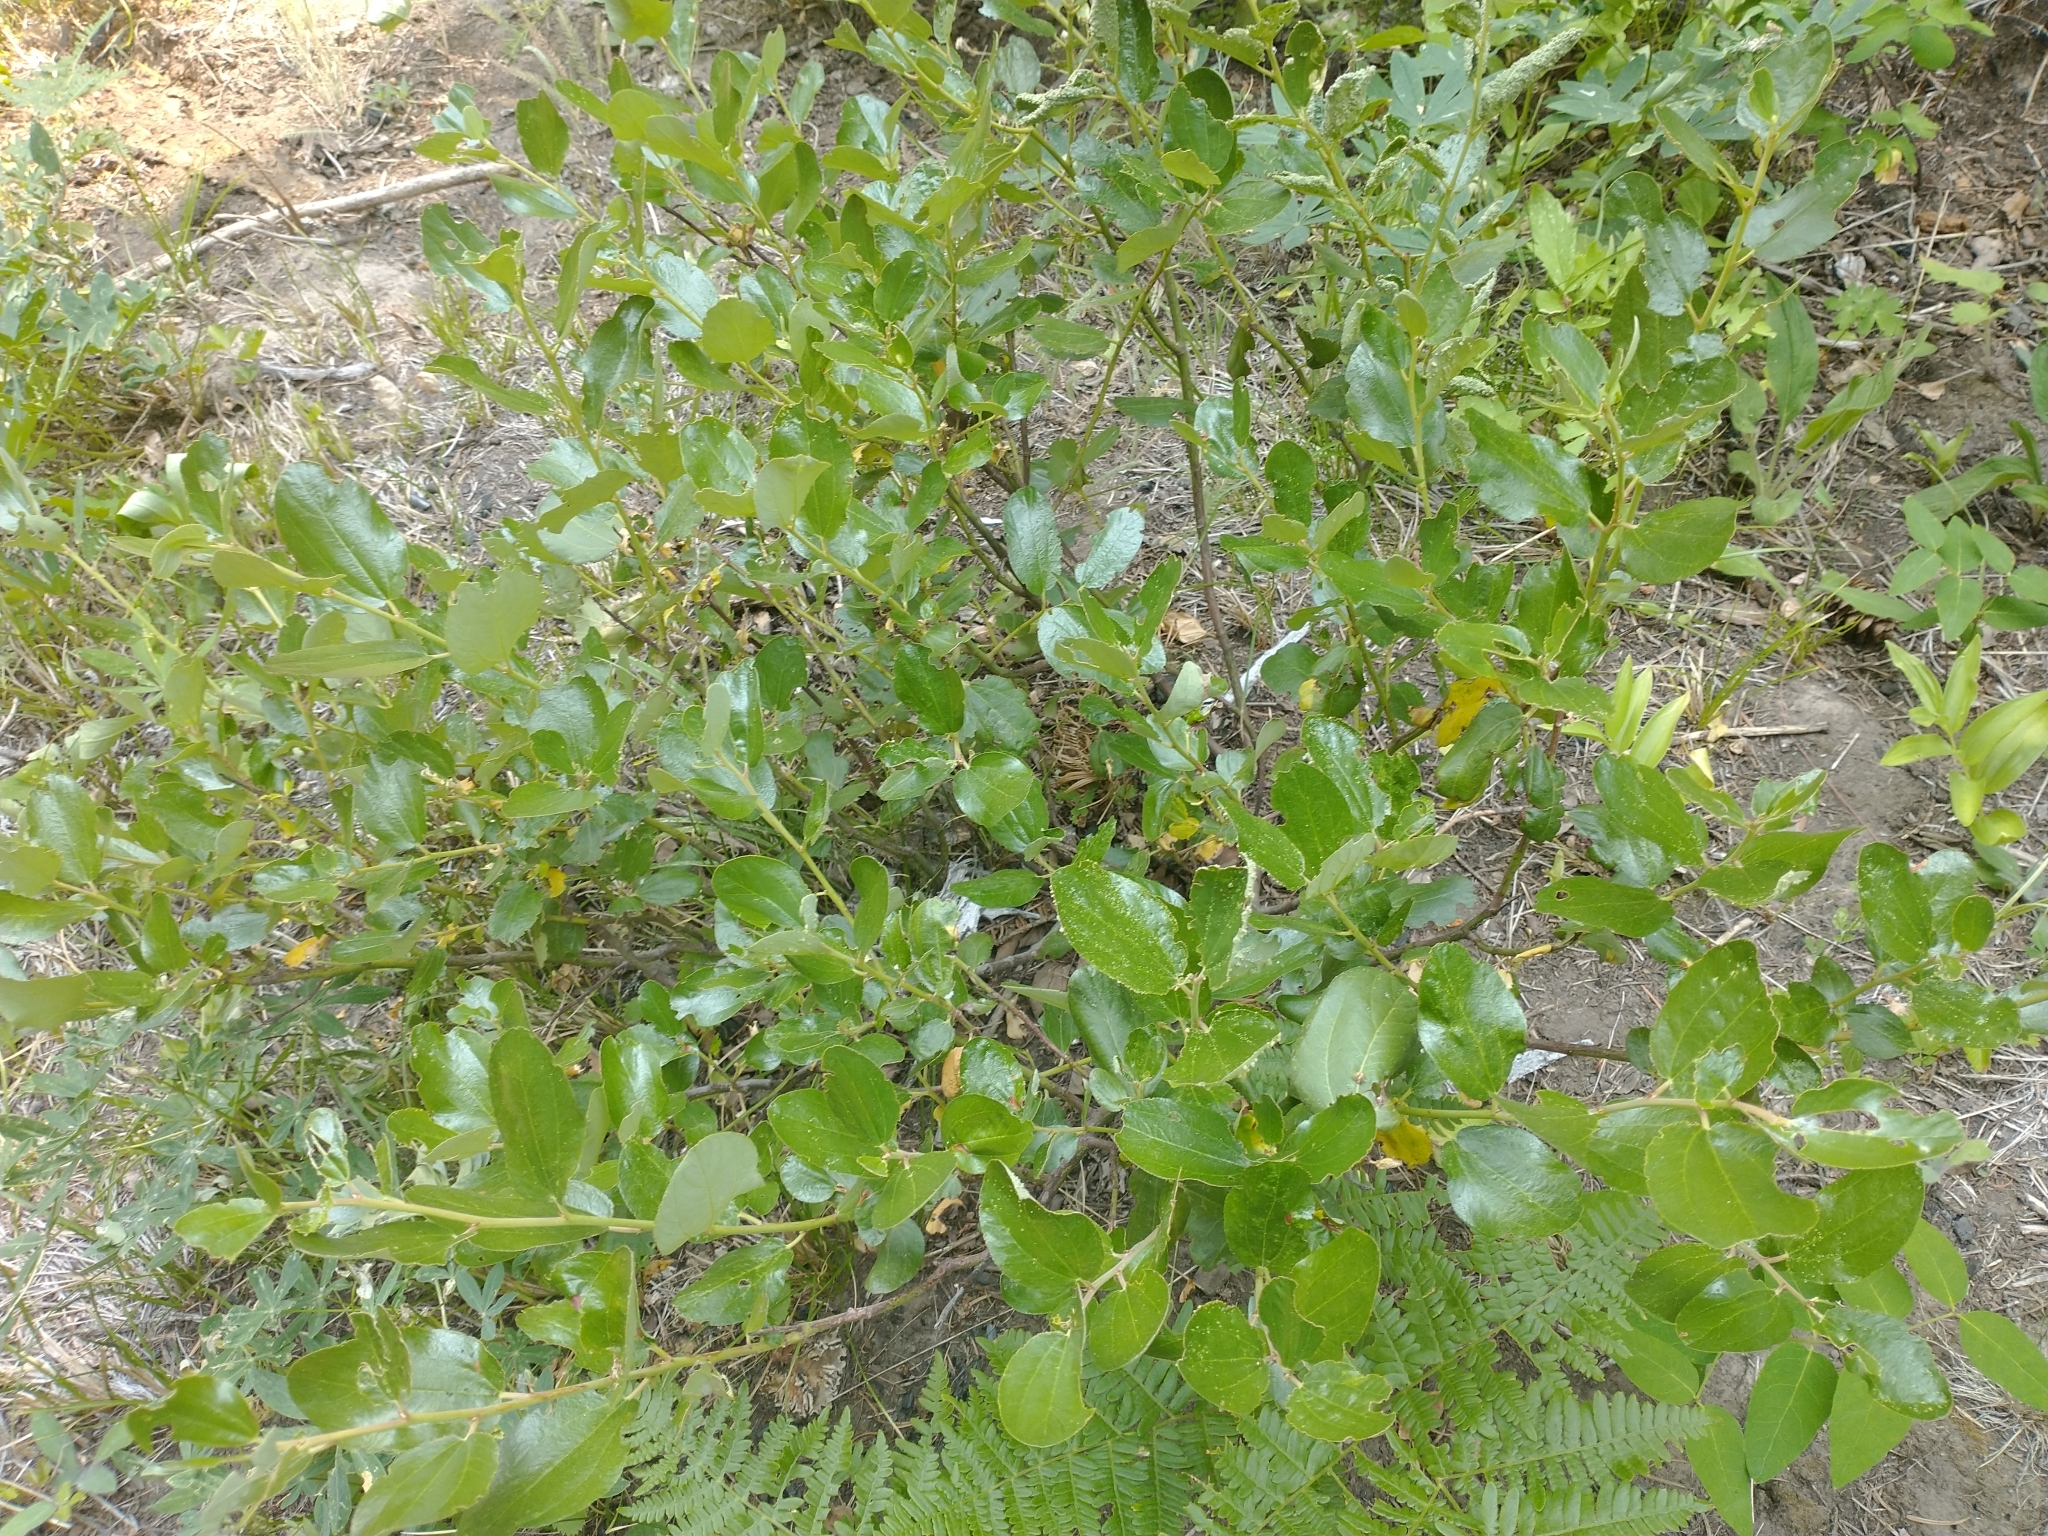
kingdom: Plantae
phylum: Tracheophyta
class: Magnoliopsida
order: Rosales
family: Rhamnaceae
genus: Ceanothus
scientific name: Ceanothus velutinus
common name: Snowbrush
